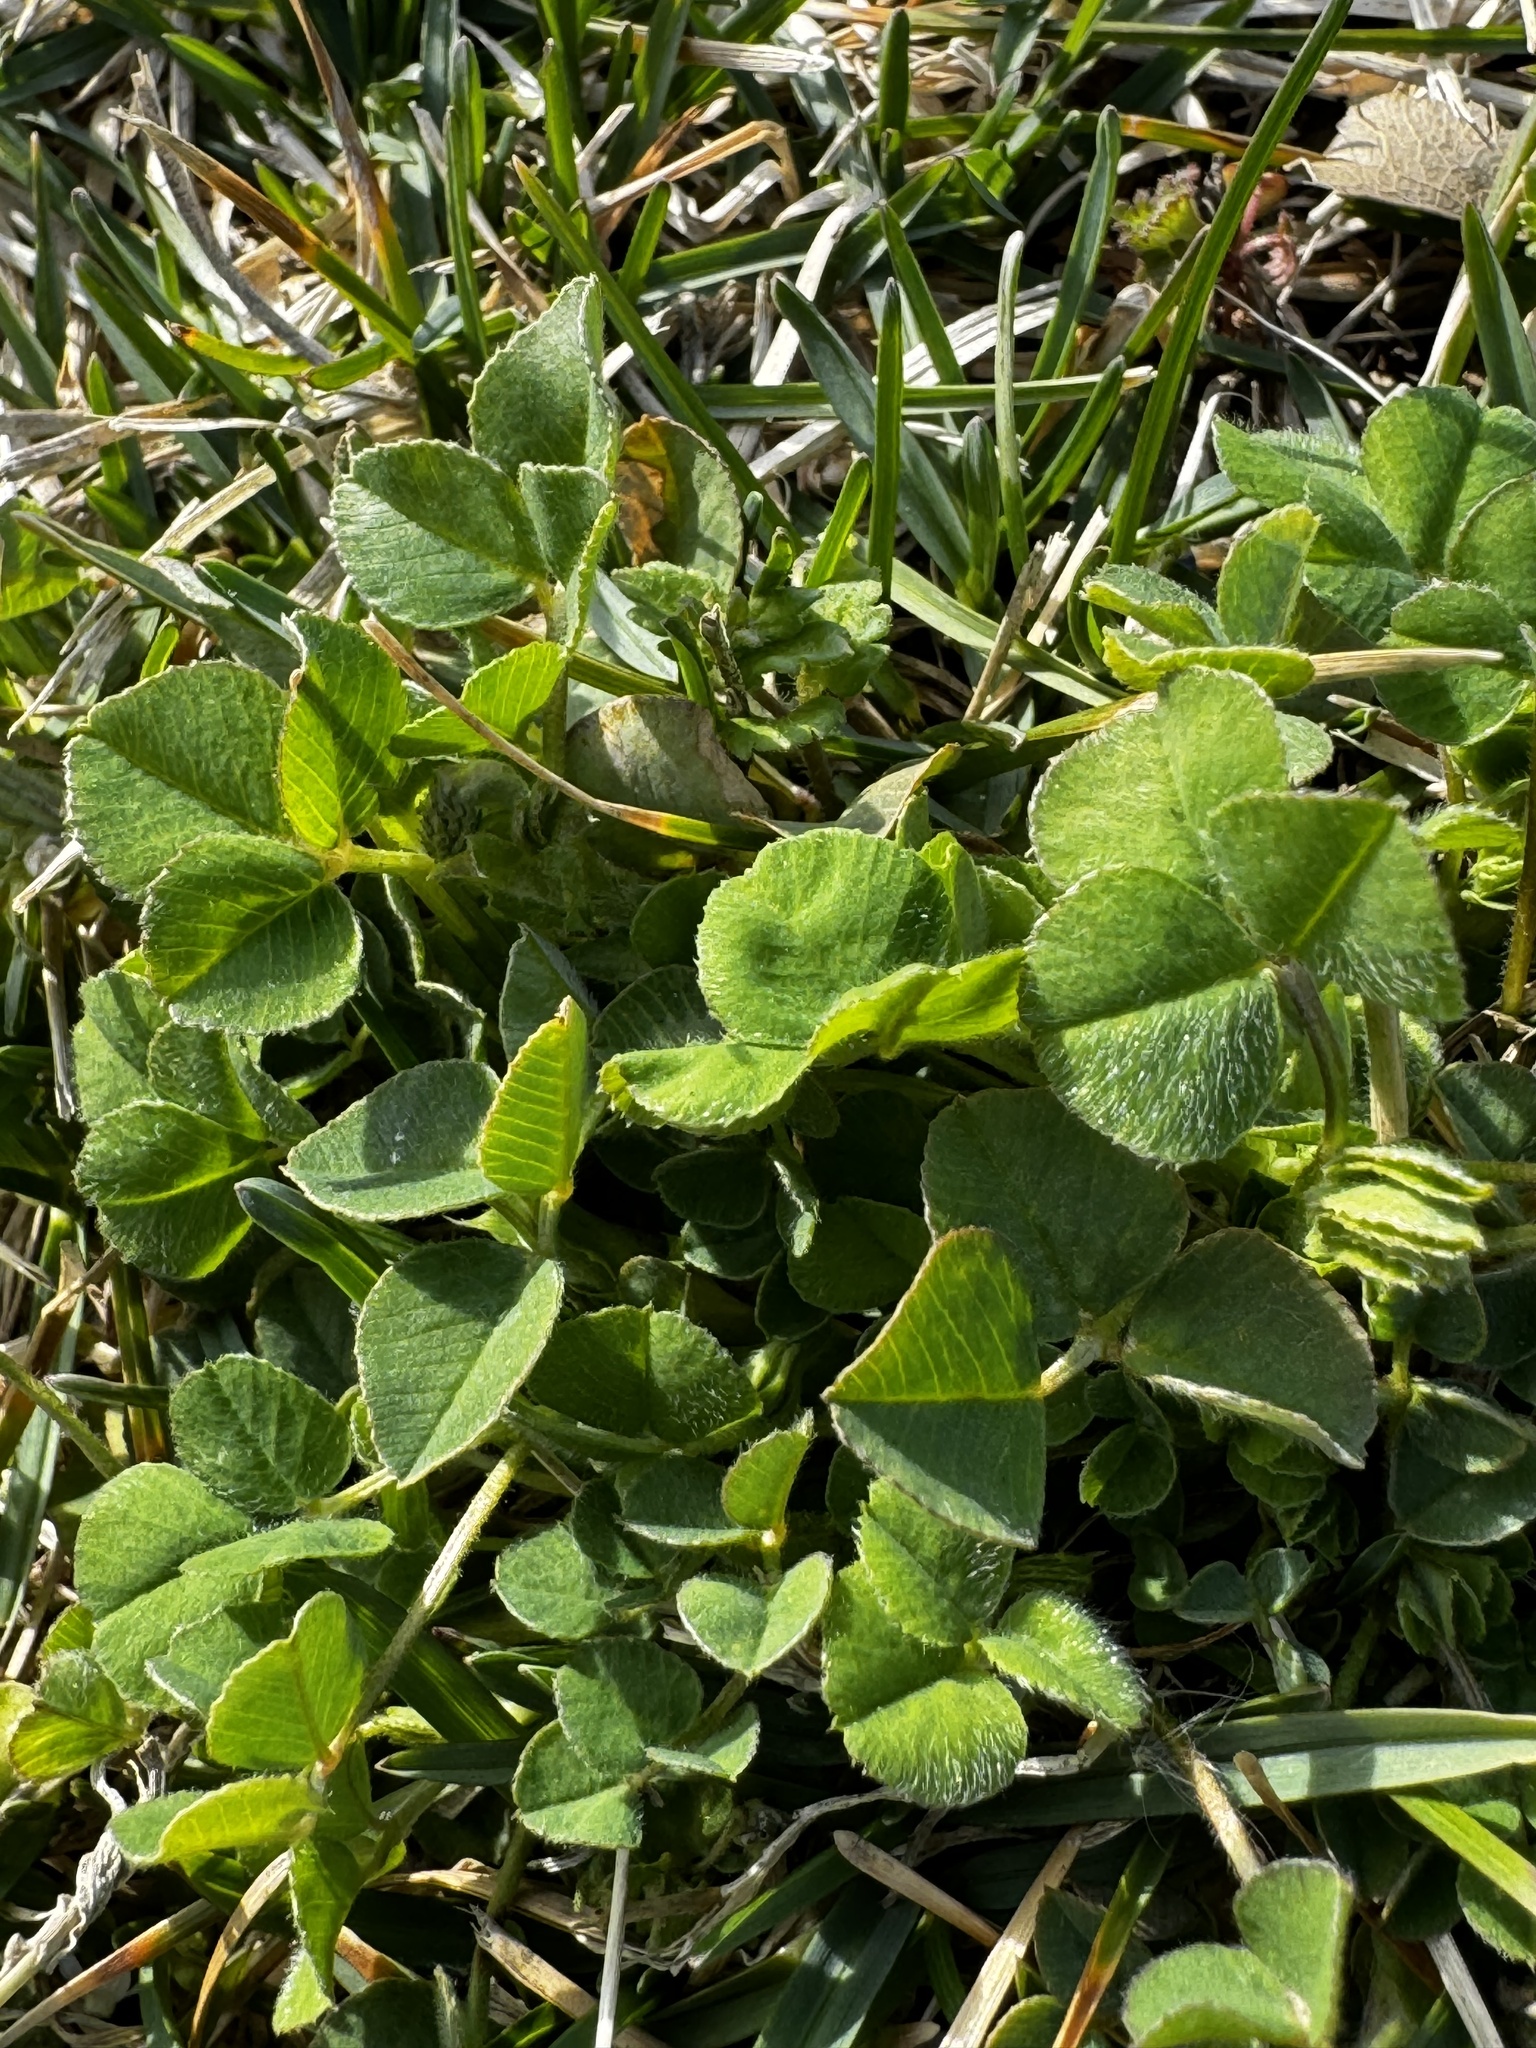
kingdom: Plantae
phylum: Tracheophyta
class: Magnoliopsida
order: Fabales
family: Fabaceae
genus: Medicago
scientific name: Medicago lupulina
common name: Black medick
